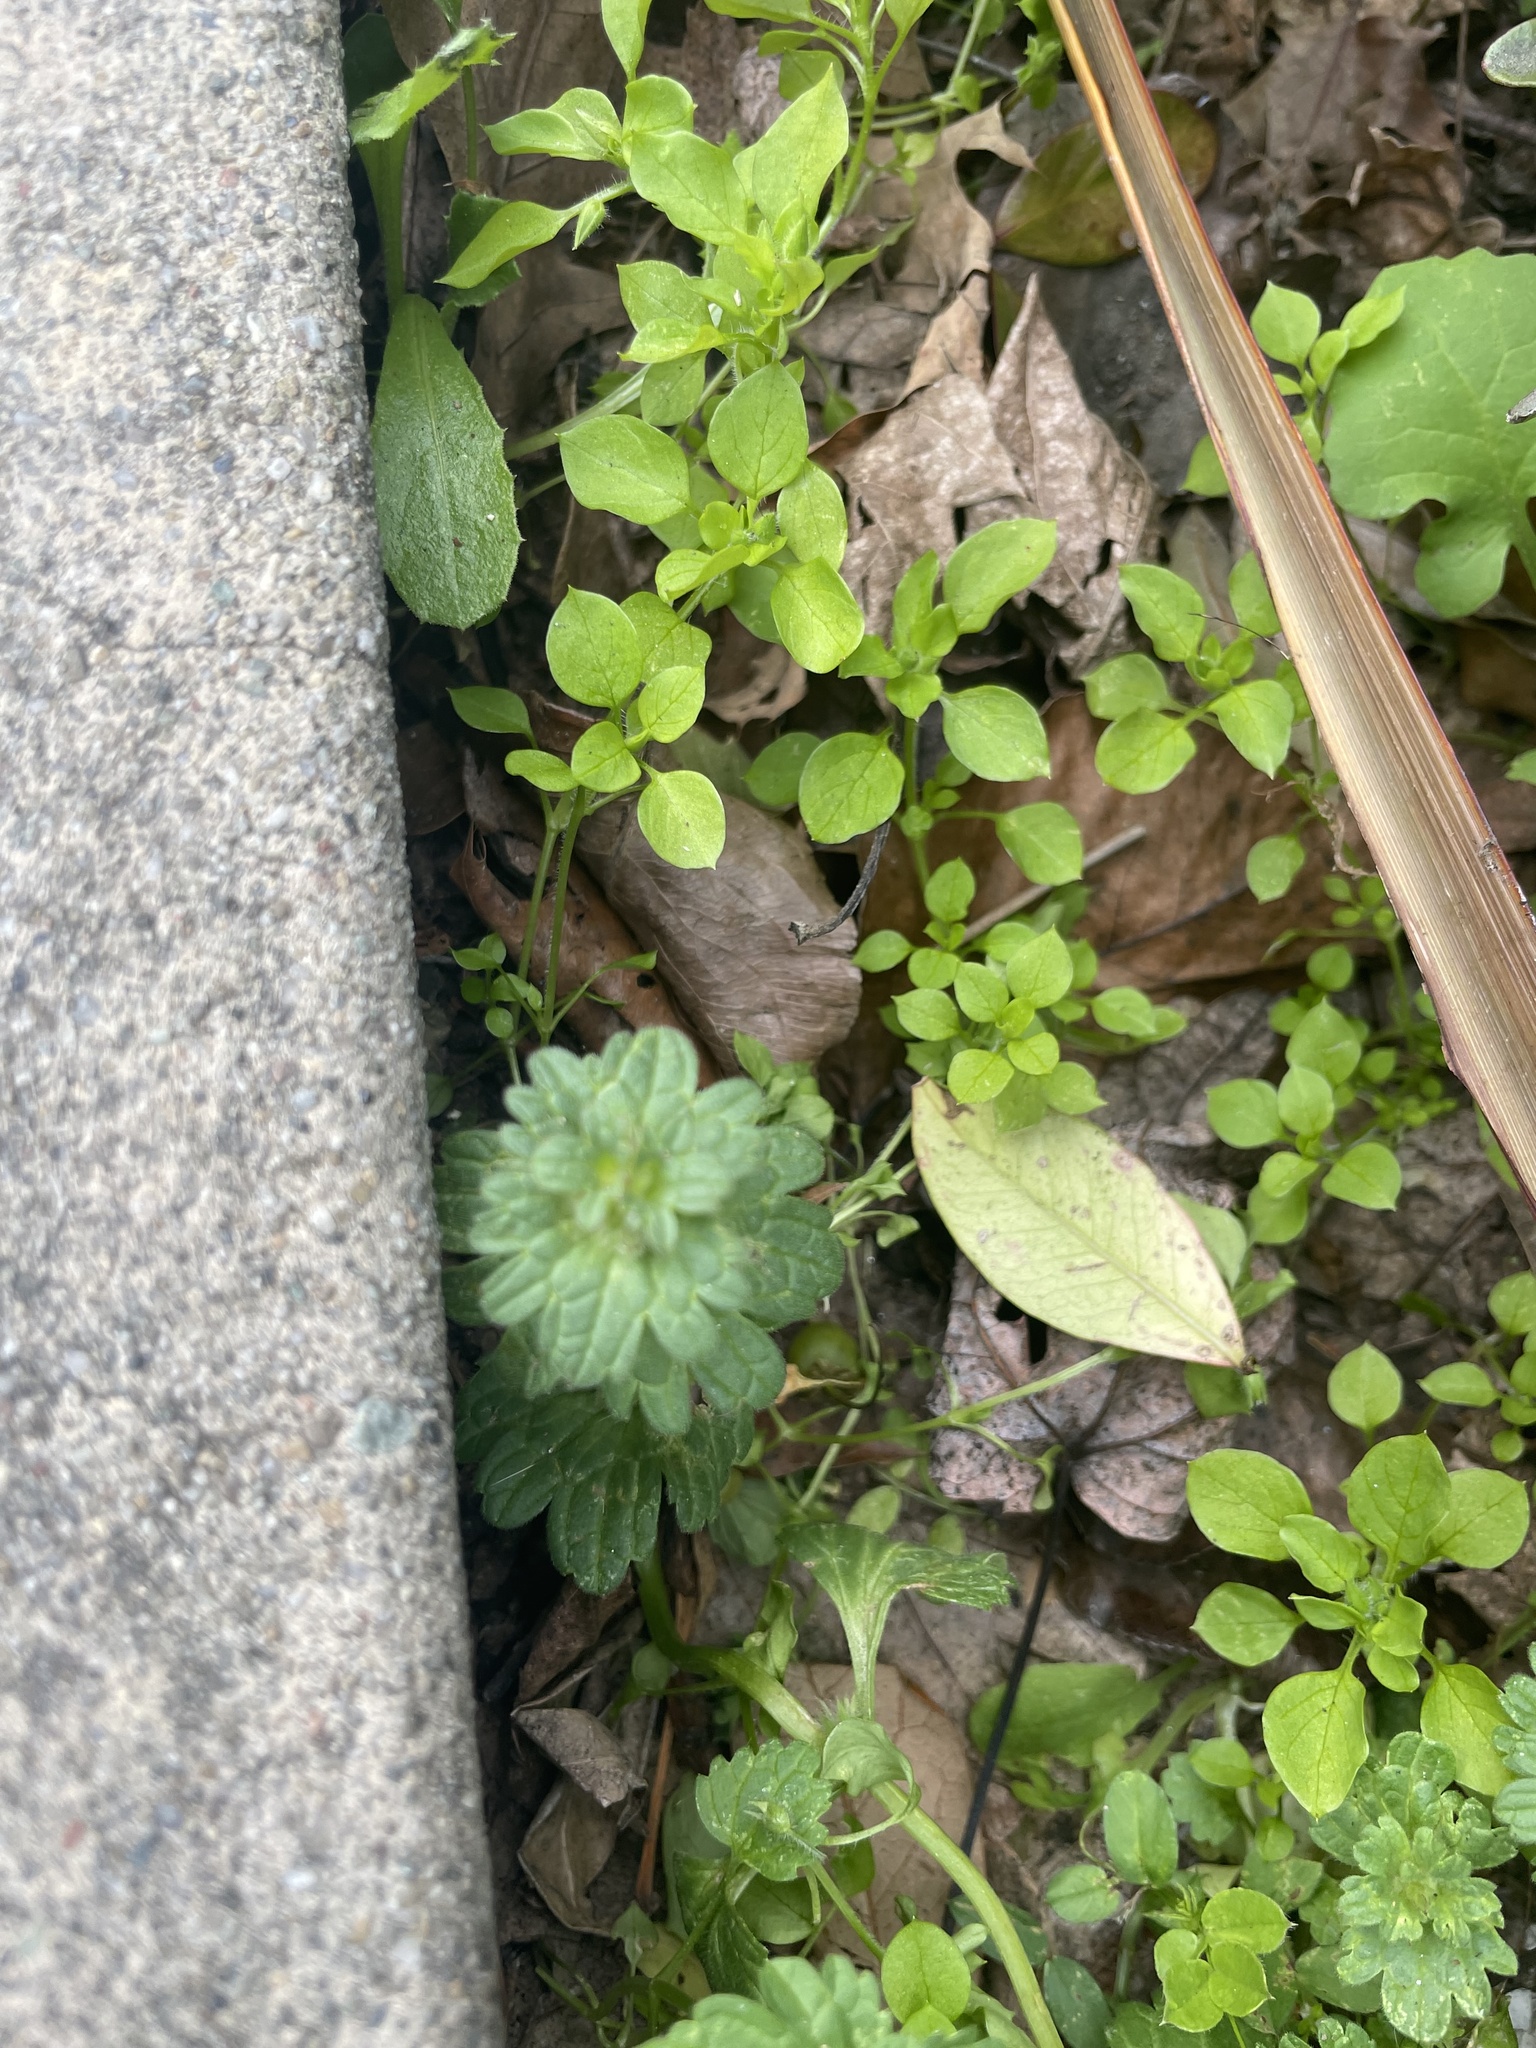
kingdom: Plantae
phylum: Tracheophyta
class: Magnoliopsida
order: Lamiales
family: Lamiaceae
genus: Lamium
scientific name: Lamium amplexicaule
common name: Henbit dead-nettle
